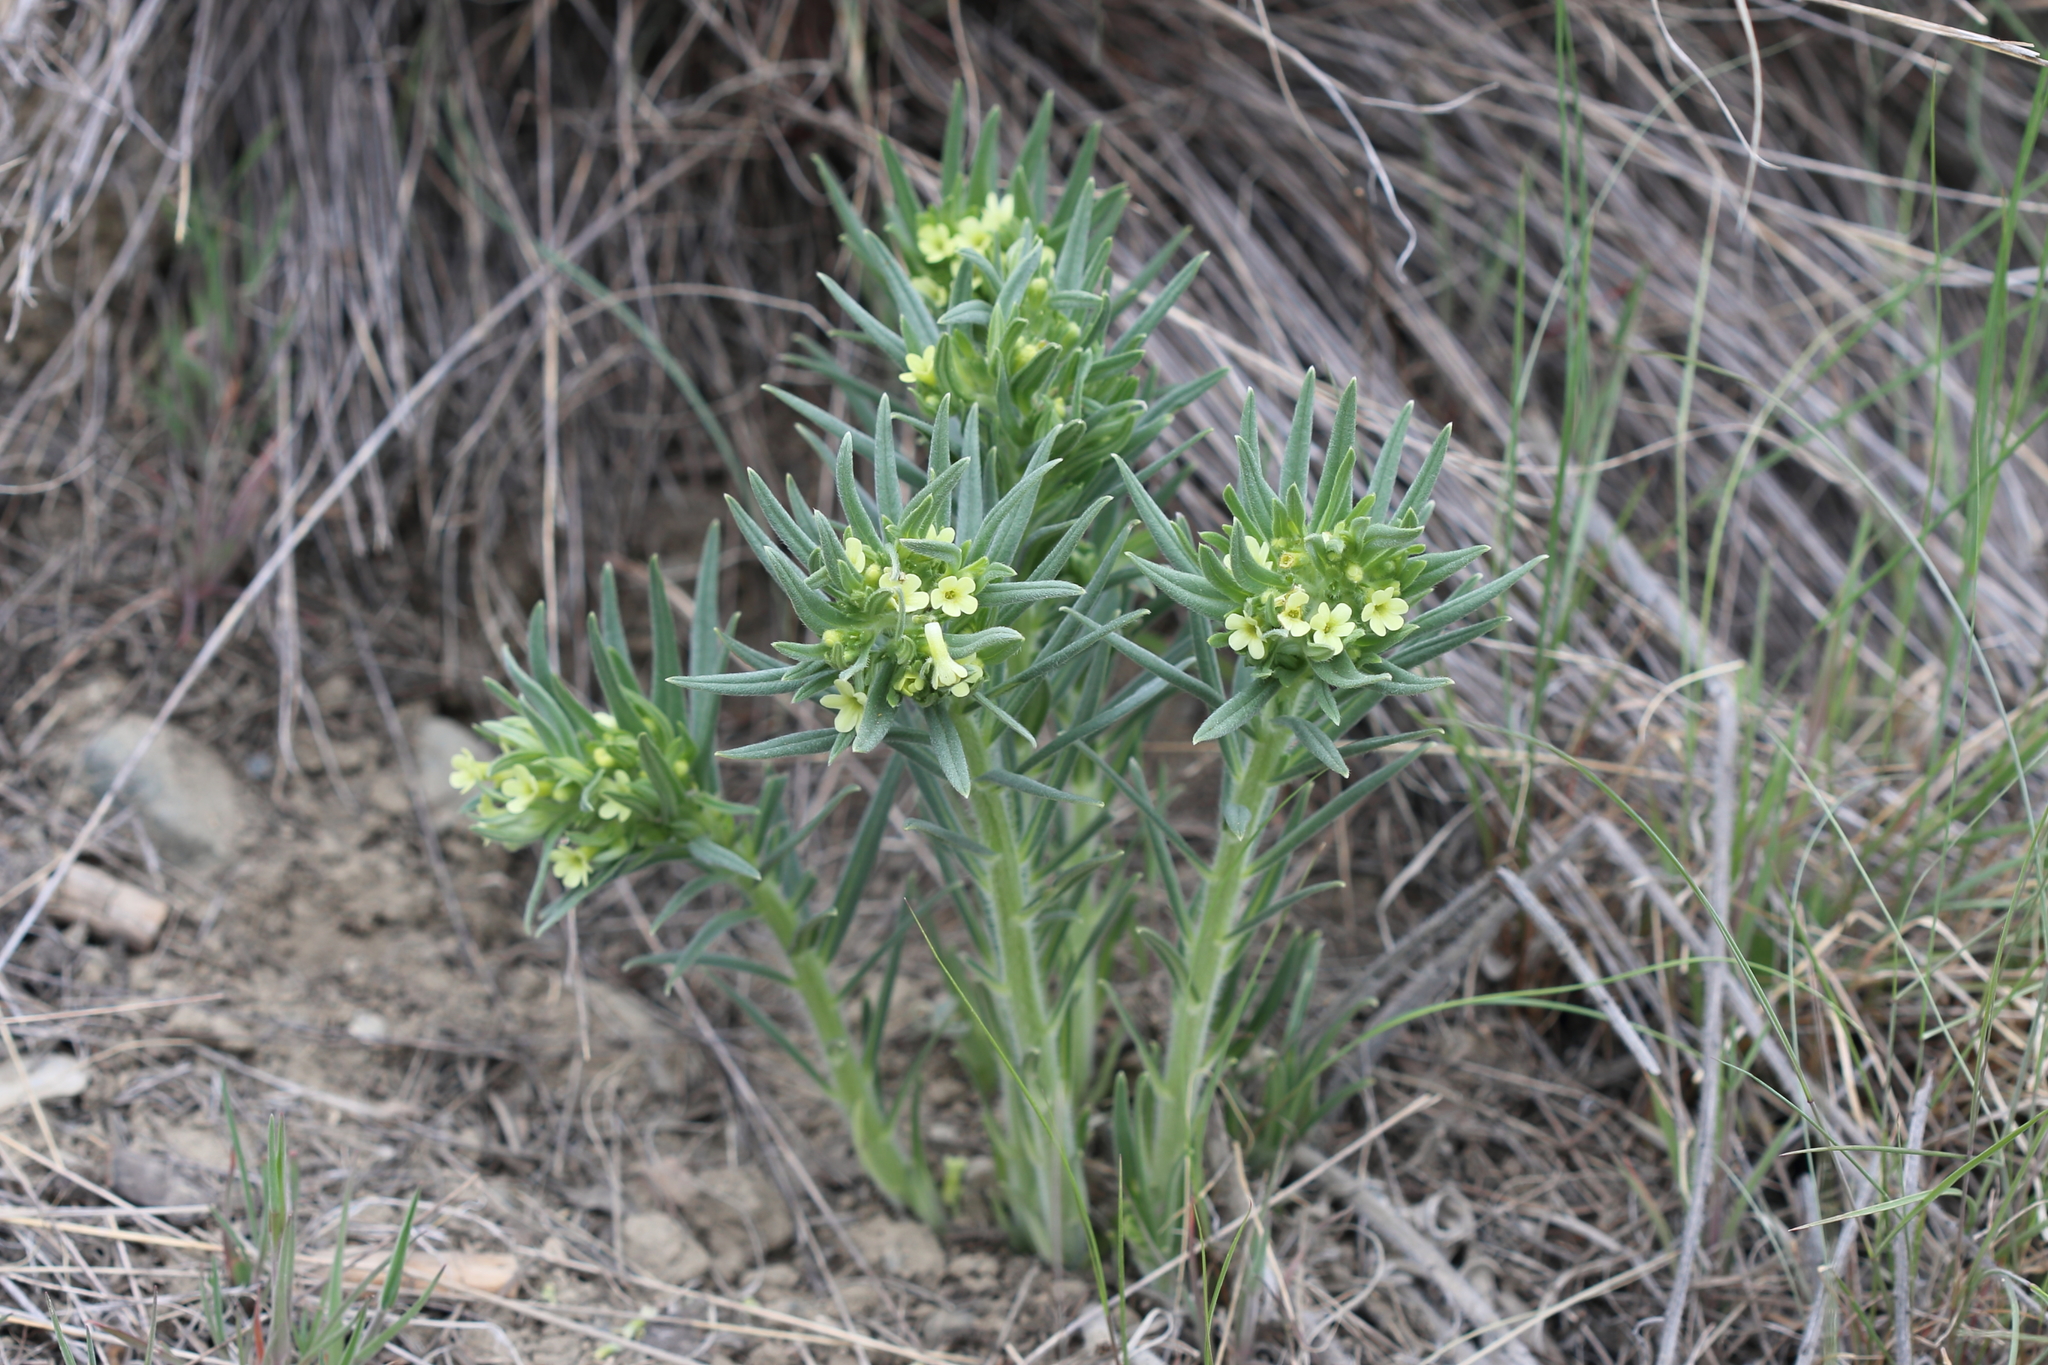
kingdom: Plantae
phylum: Tracheophyta
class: Magnoliopsida
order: Boraginales
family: Boraginaceae
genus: Lithospermum
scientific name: Lithospermum ruderale
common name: Western gromwell
